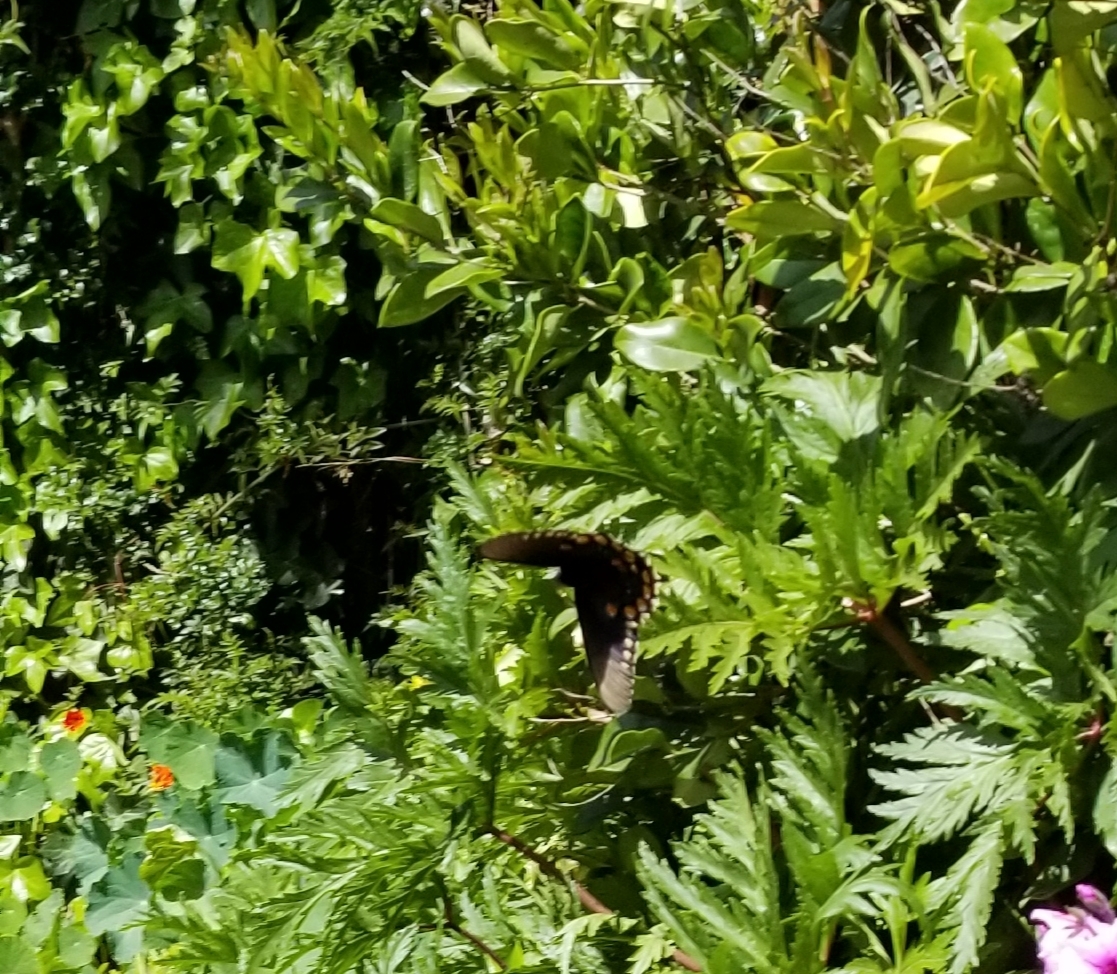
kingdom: Animalia
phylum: Arthropoda
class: Insecta
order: Lepidoptera
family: Papilionidae
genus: Battus
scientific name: Battus philenor
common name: Pipevine swallowtail
